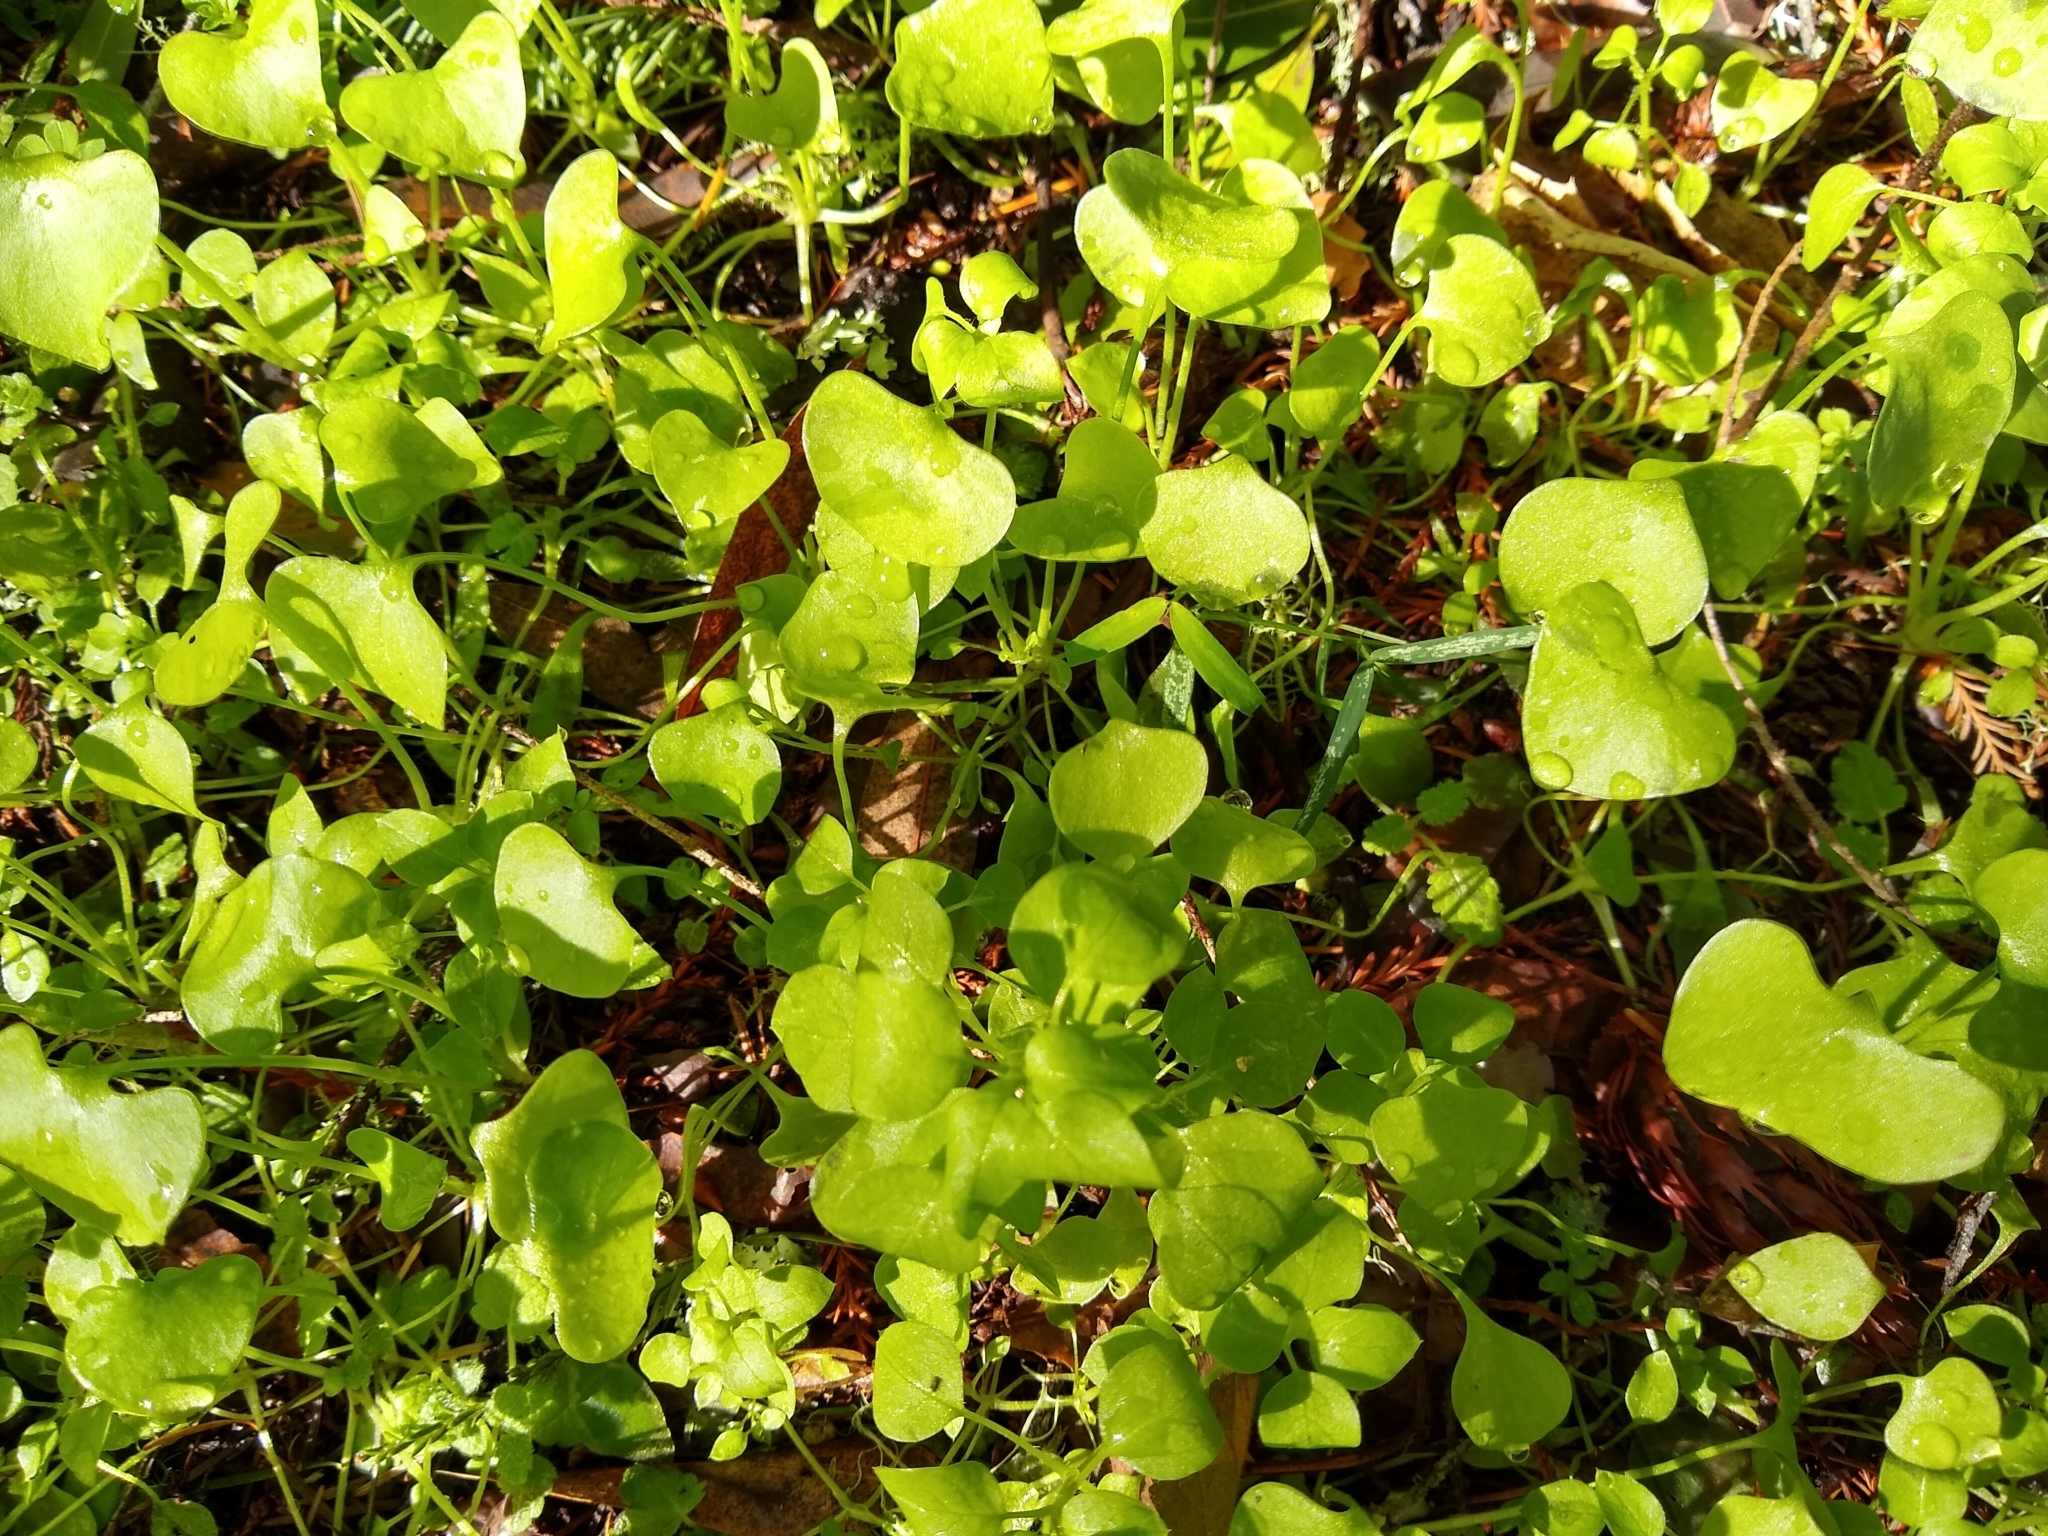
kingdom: Plantae
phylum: Tracheophyta
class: Magnoliopsida
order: Caryophyllales
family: Montiaceae
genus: Claytonia
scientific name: Claytonia perfoliata
